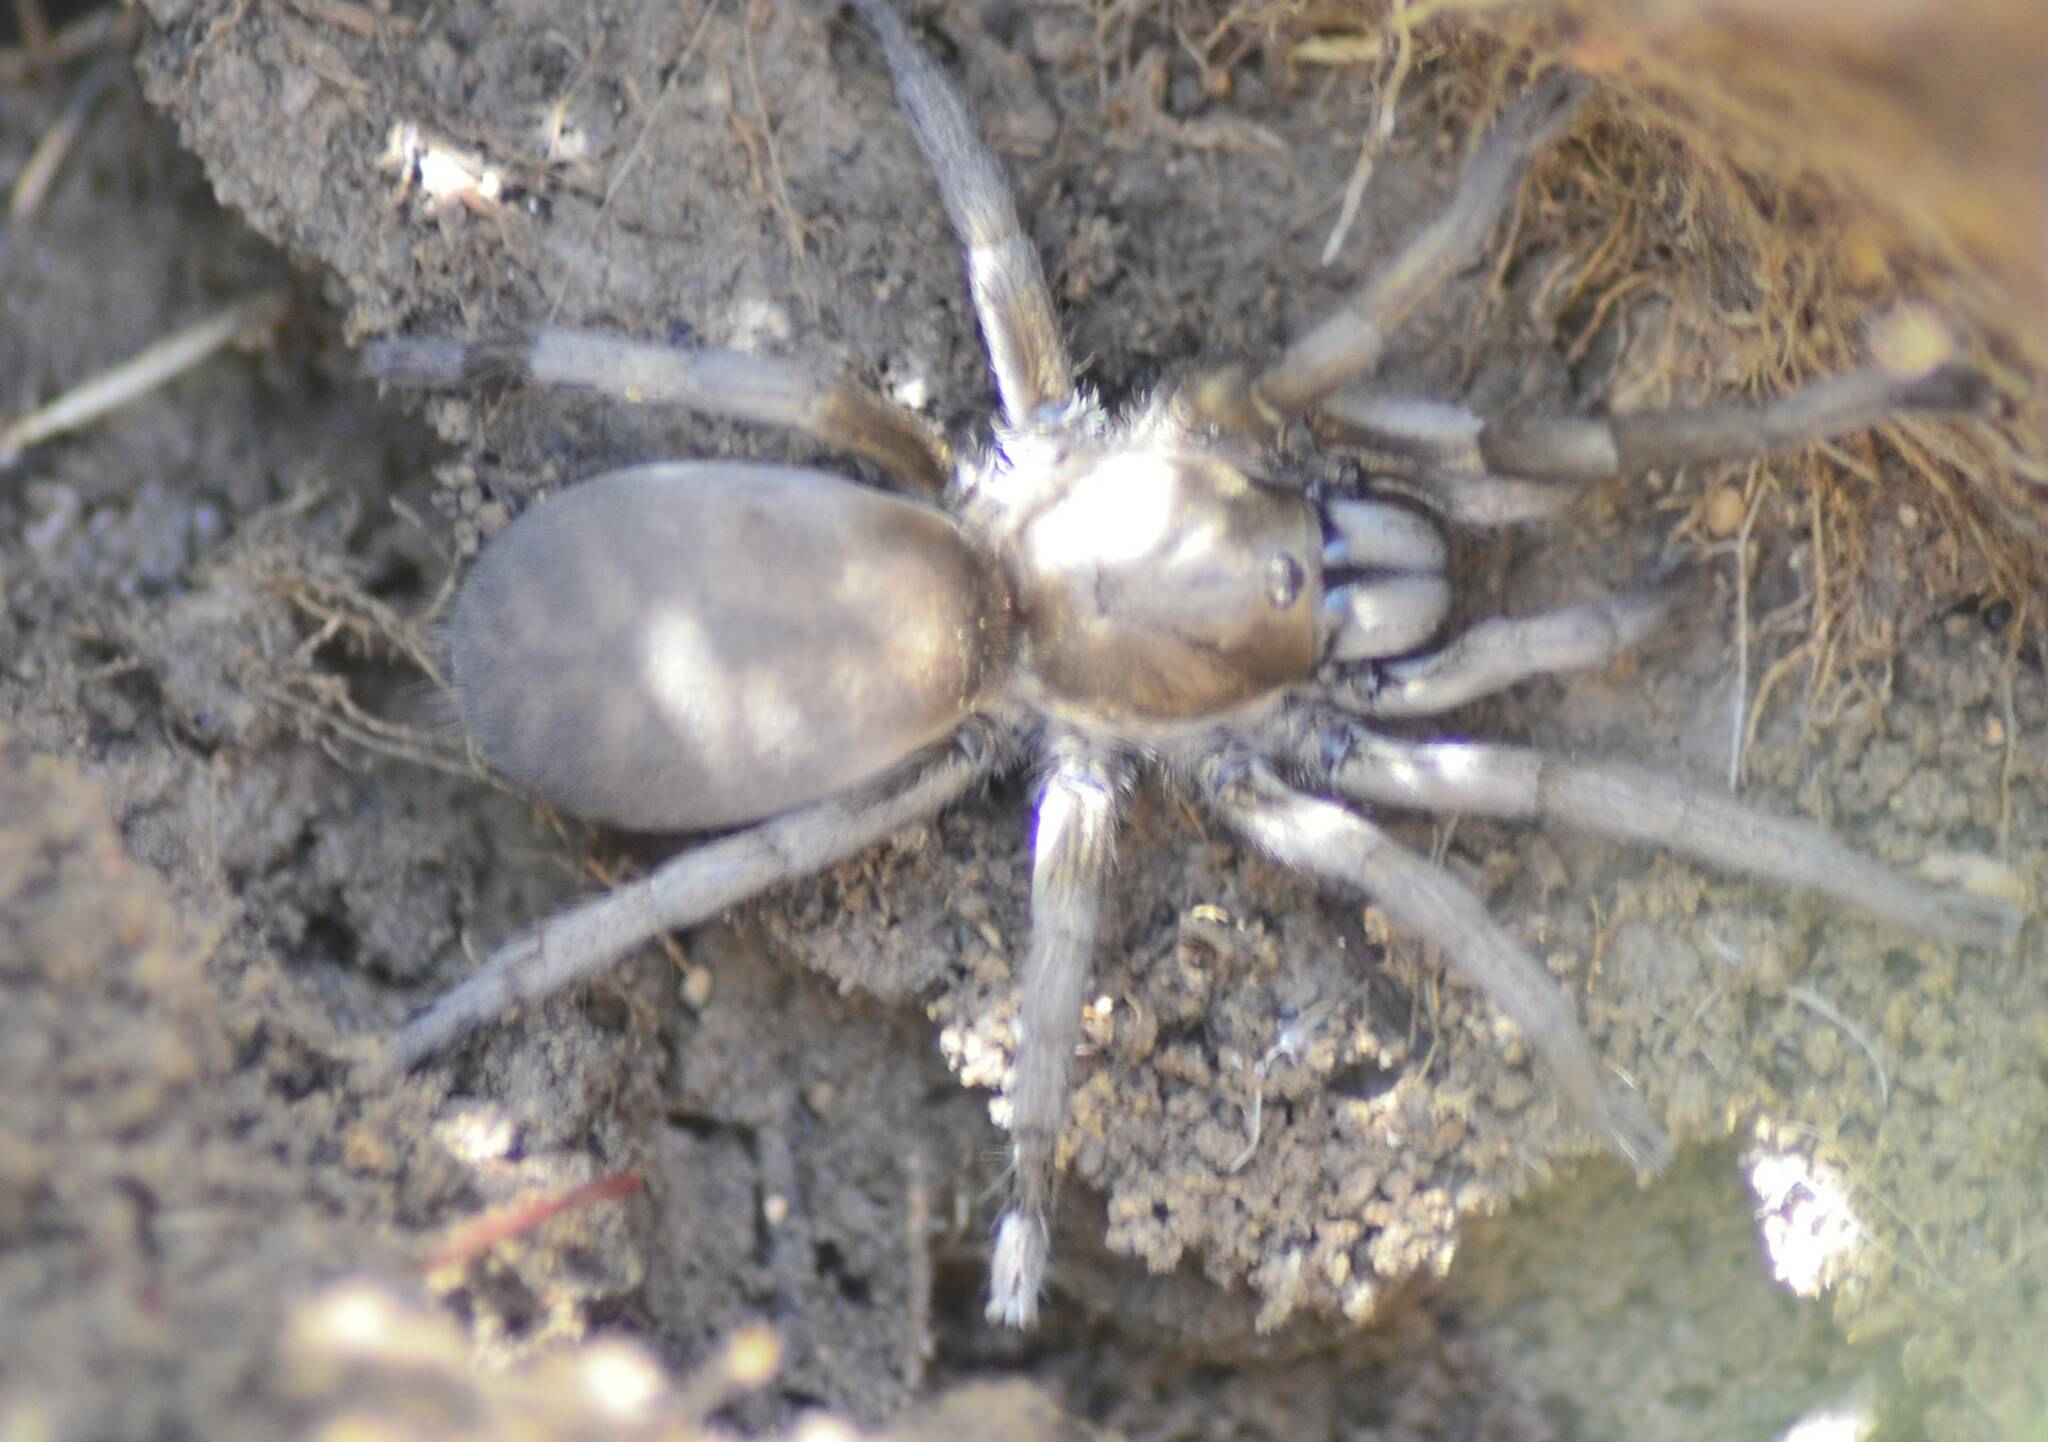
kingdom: Animalia
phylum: Arthropoda
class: Arachnida
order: Araneae
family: Theraphosidae
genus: Ischnocolus
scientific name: Ischnocolus valentinus
